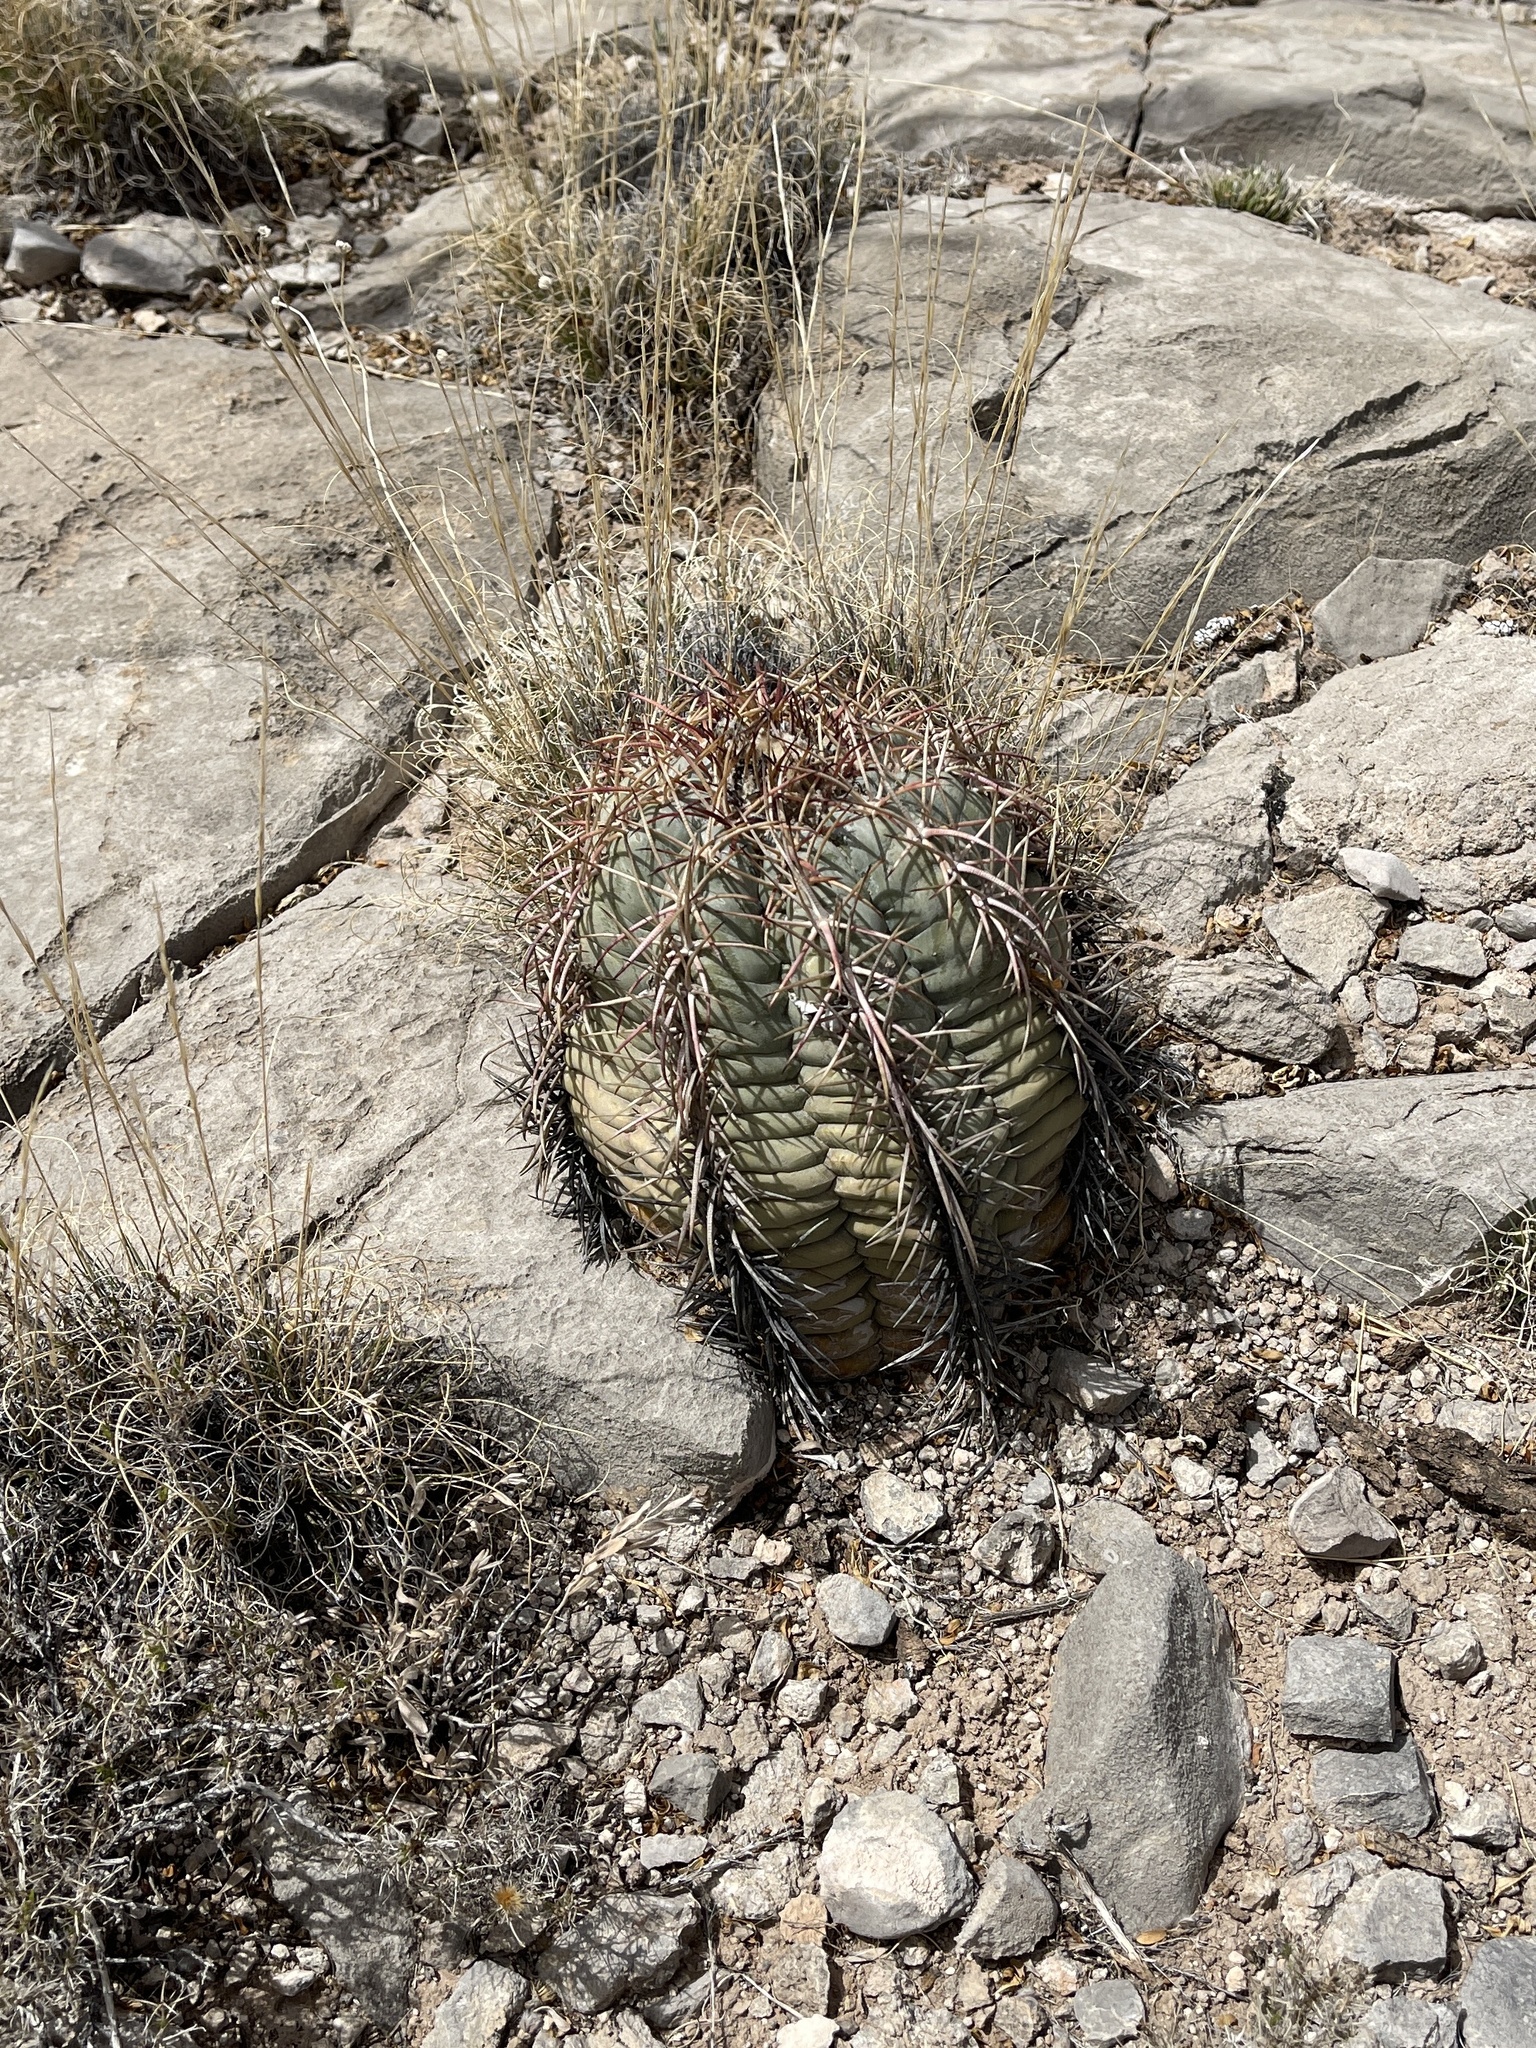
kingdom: Plantae
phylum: Tracheophyta
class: Magnoliopsida
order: Caryophyllales
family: Cactaceae
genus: Echinocactus
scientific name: Echinocactus horizonthalonius
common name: Devilshead
